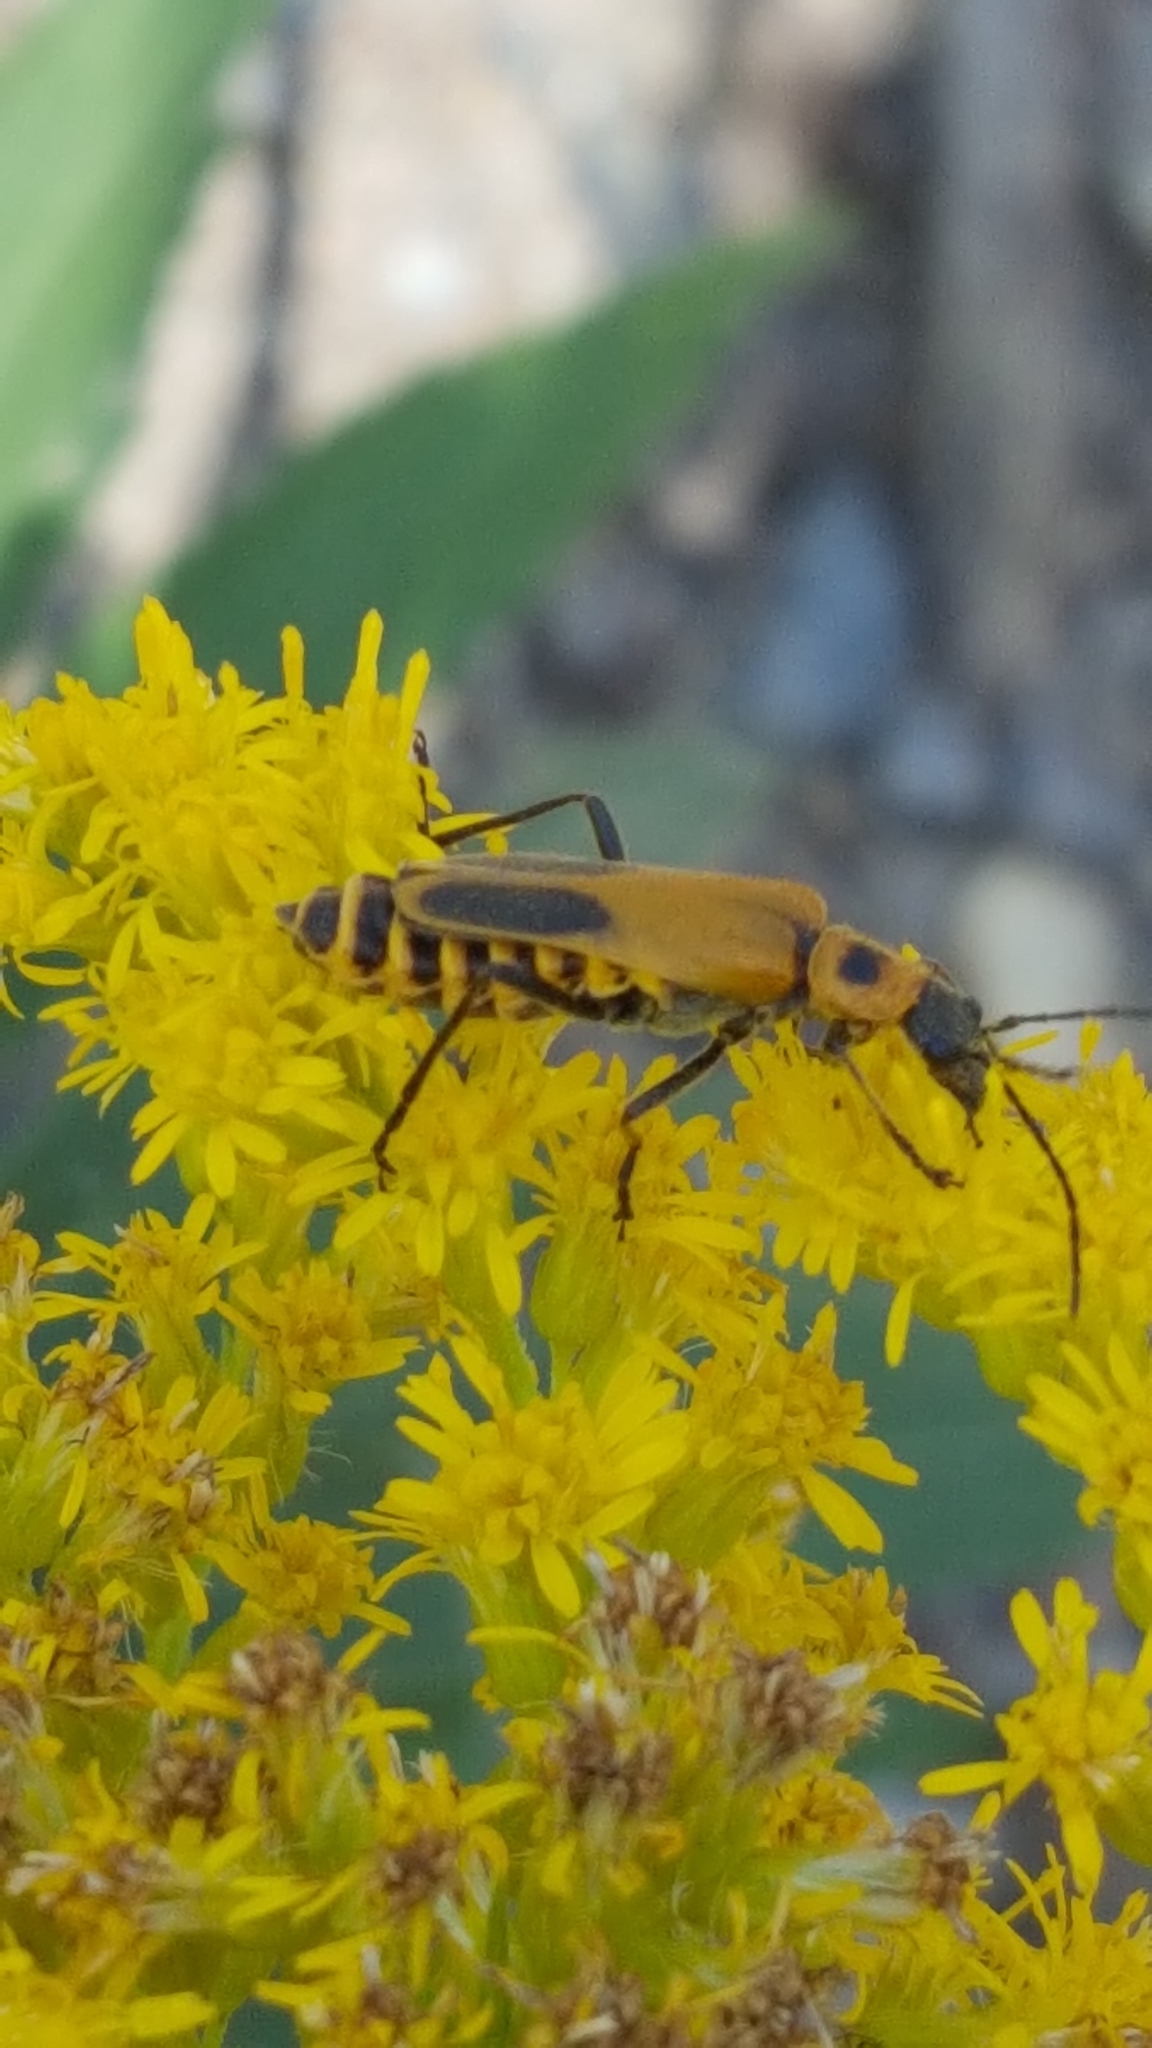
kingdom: Animalia
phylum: Arthropoda
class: Insecta
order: Coleoptera
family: Cantharidae
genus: Chauliognathus
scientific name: Chauliognathus pensylvanicus
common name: Goldenrod soldier beetle
